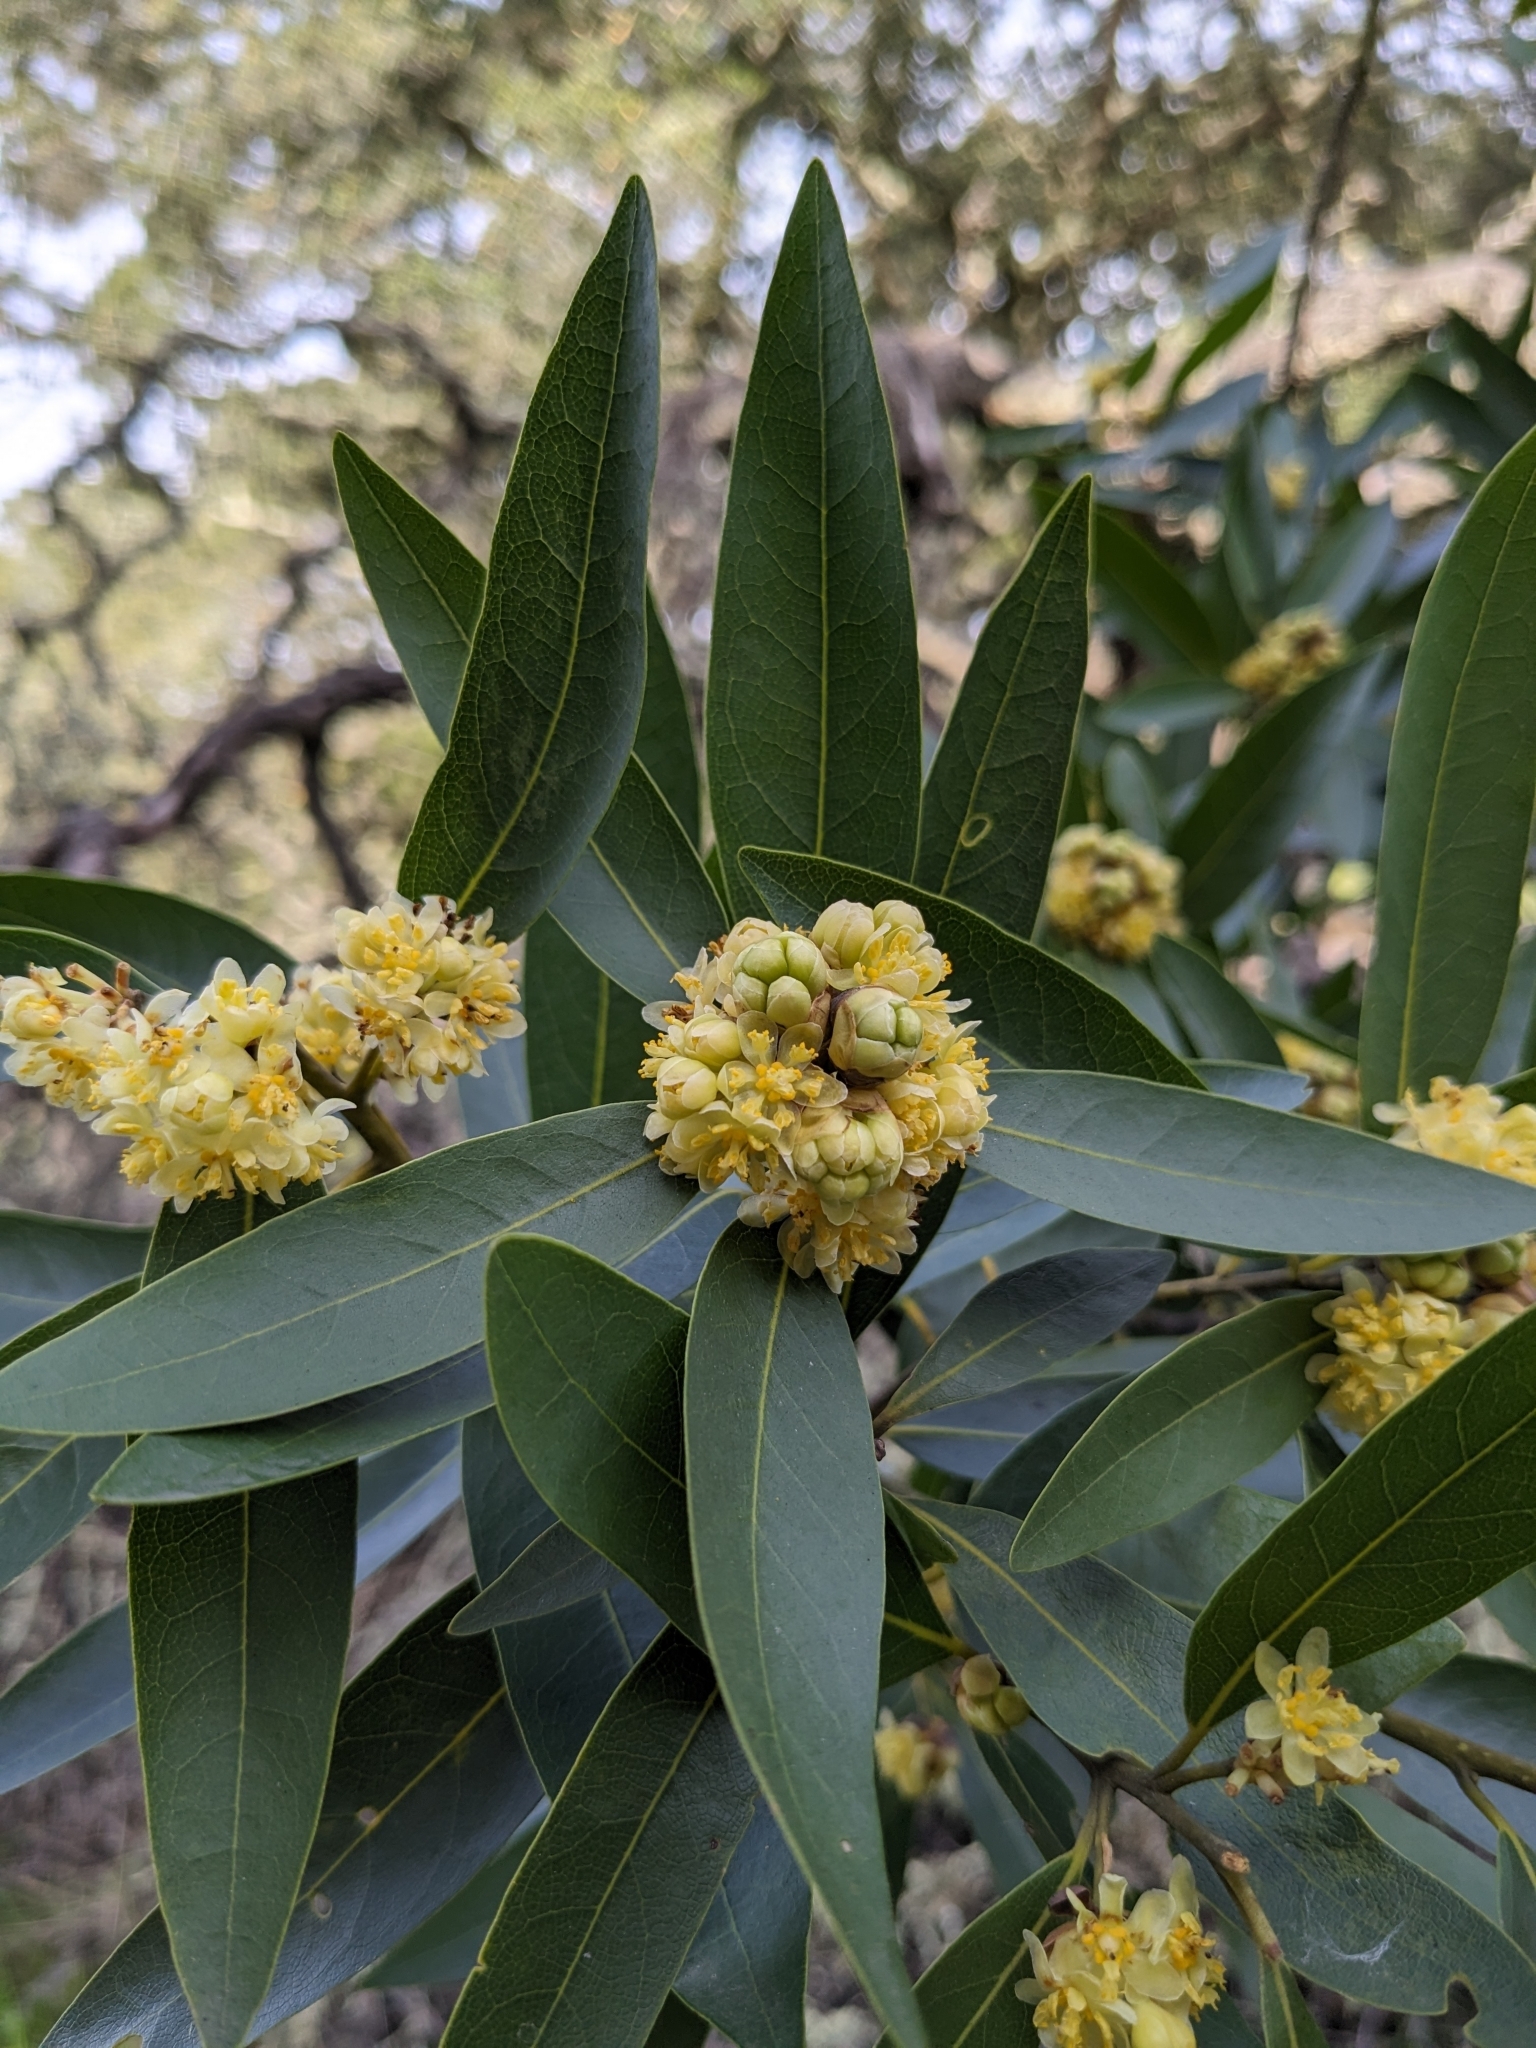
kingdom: Plantae
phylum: Tracheophyta
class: Magnoliopsida
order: Laurales
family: Lauraceae
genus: Umbellularia
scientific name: Umbellularia californica
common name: California bay
